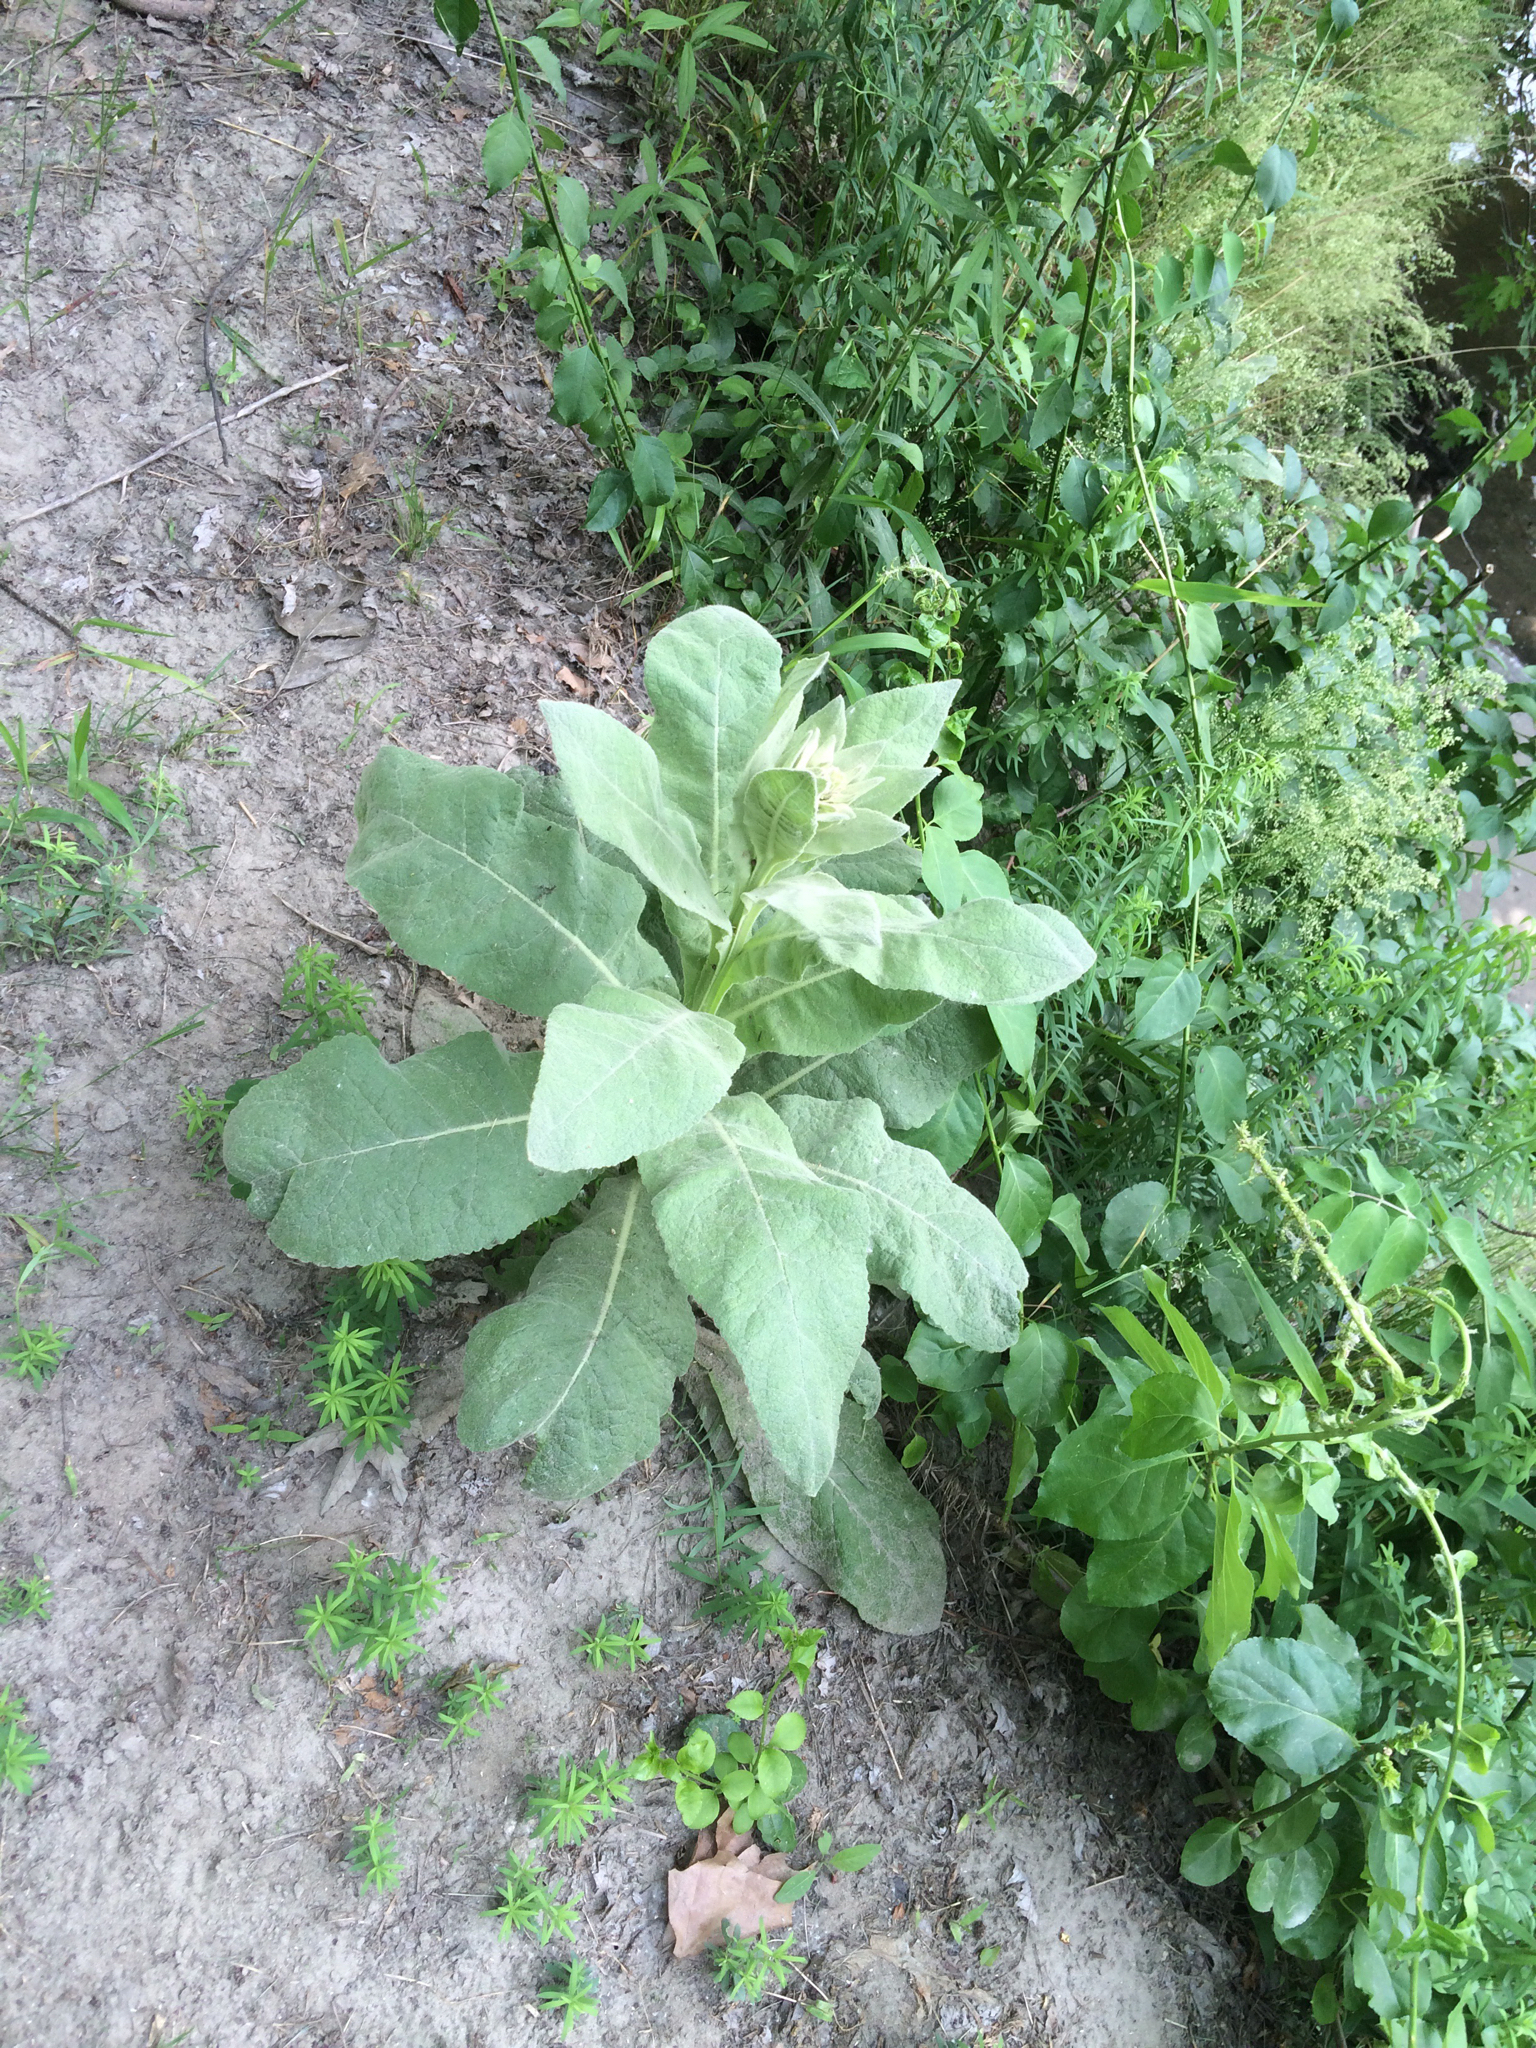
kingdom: Plantae
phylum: Tracheophyta
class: Magnoliopsida
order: Lamiales
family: Scrophulariaceae
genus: Verbascum
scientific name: Verbascum thapsus
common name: Common mullein
